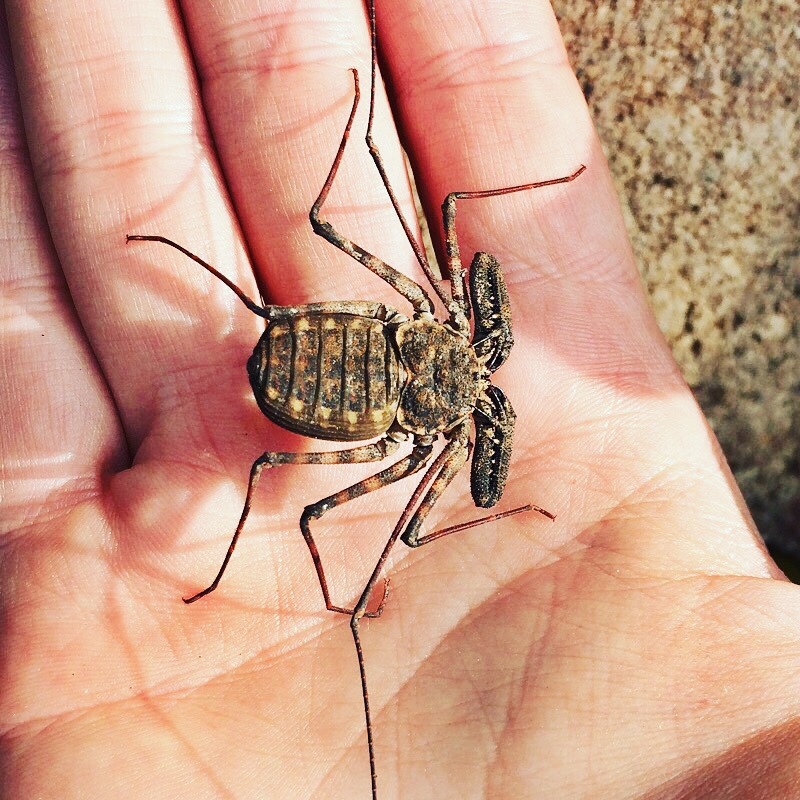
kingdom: Animalia
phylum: Arthropoda
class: Arachnida
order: Amblypygi
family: Phrynichidae
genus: Damon
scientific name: Damon annulatipes
